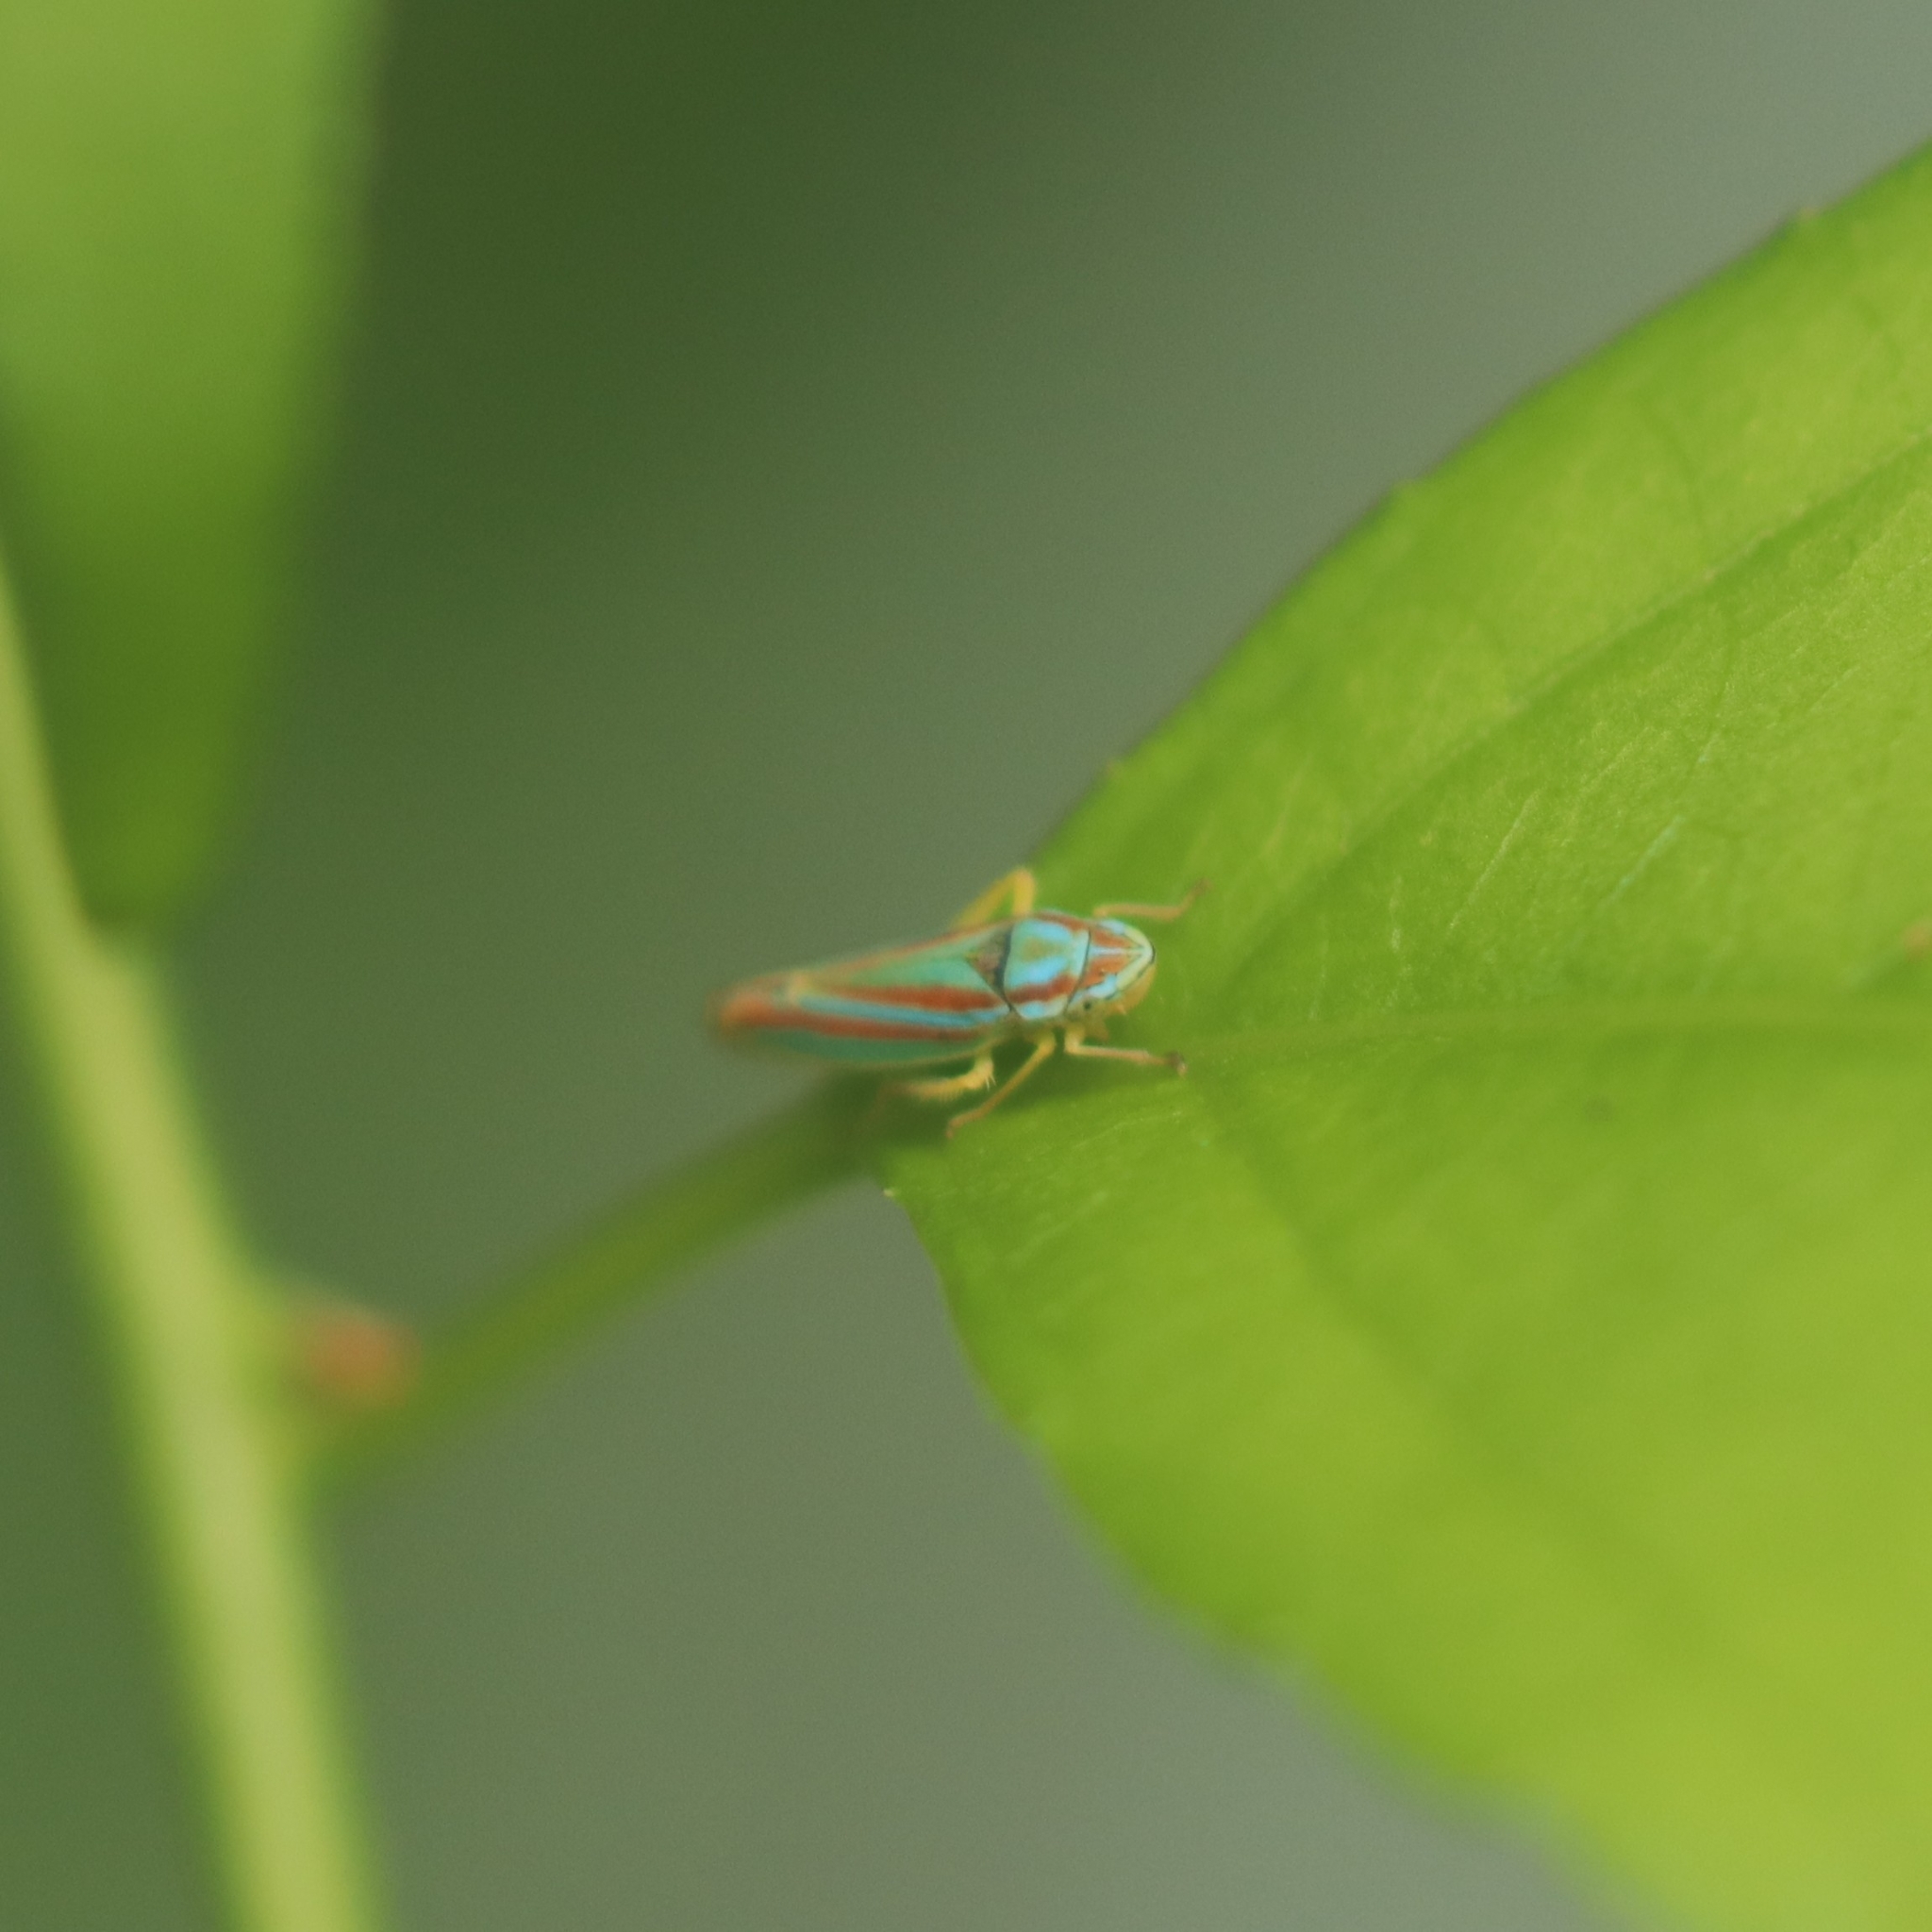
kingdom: Animalia
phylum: Arthropoda
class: Insecta
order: Hemiptera
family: Cicadellidae
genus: Graphocephala
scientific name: Graphocephala versuta
